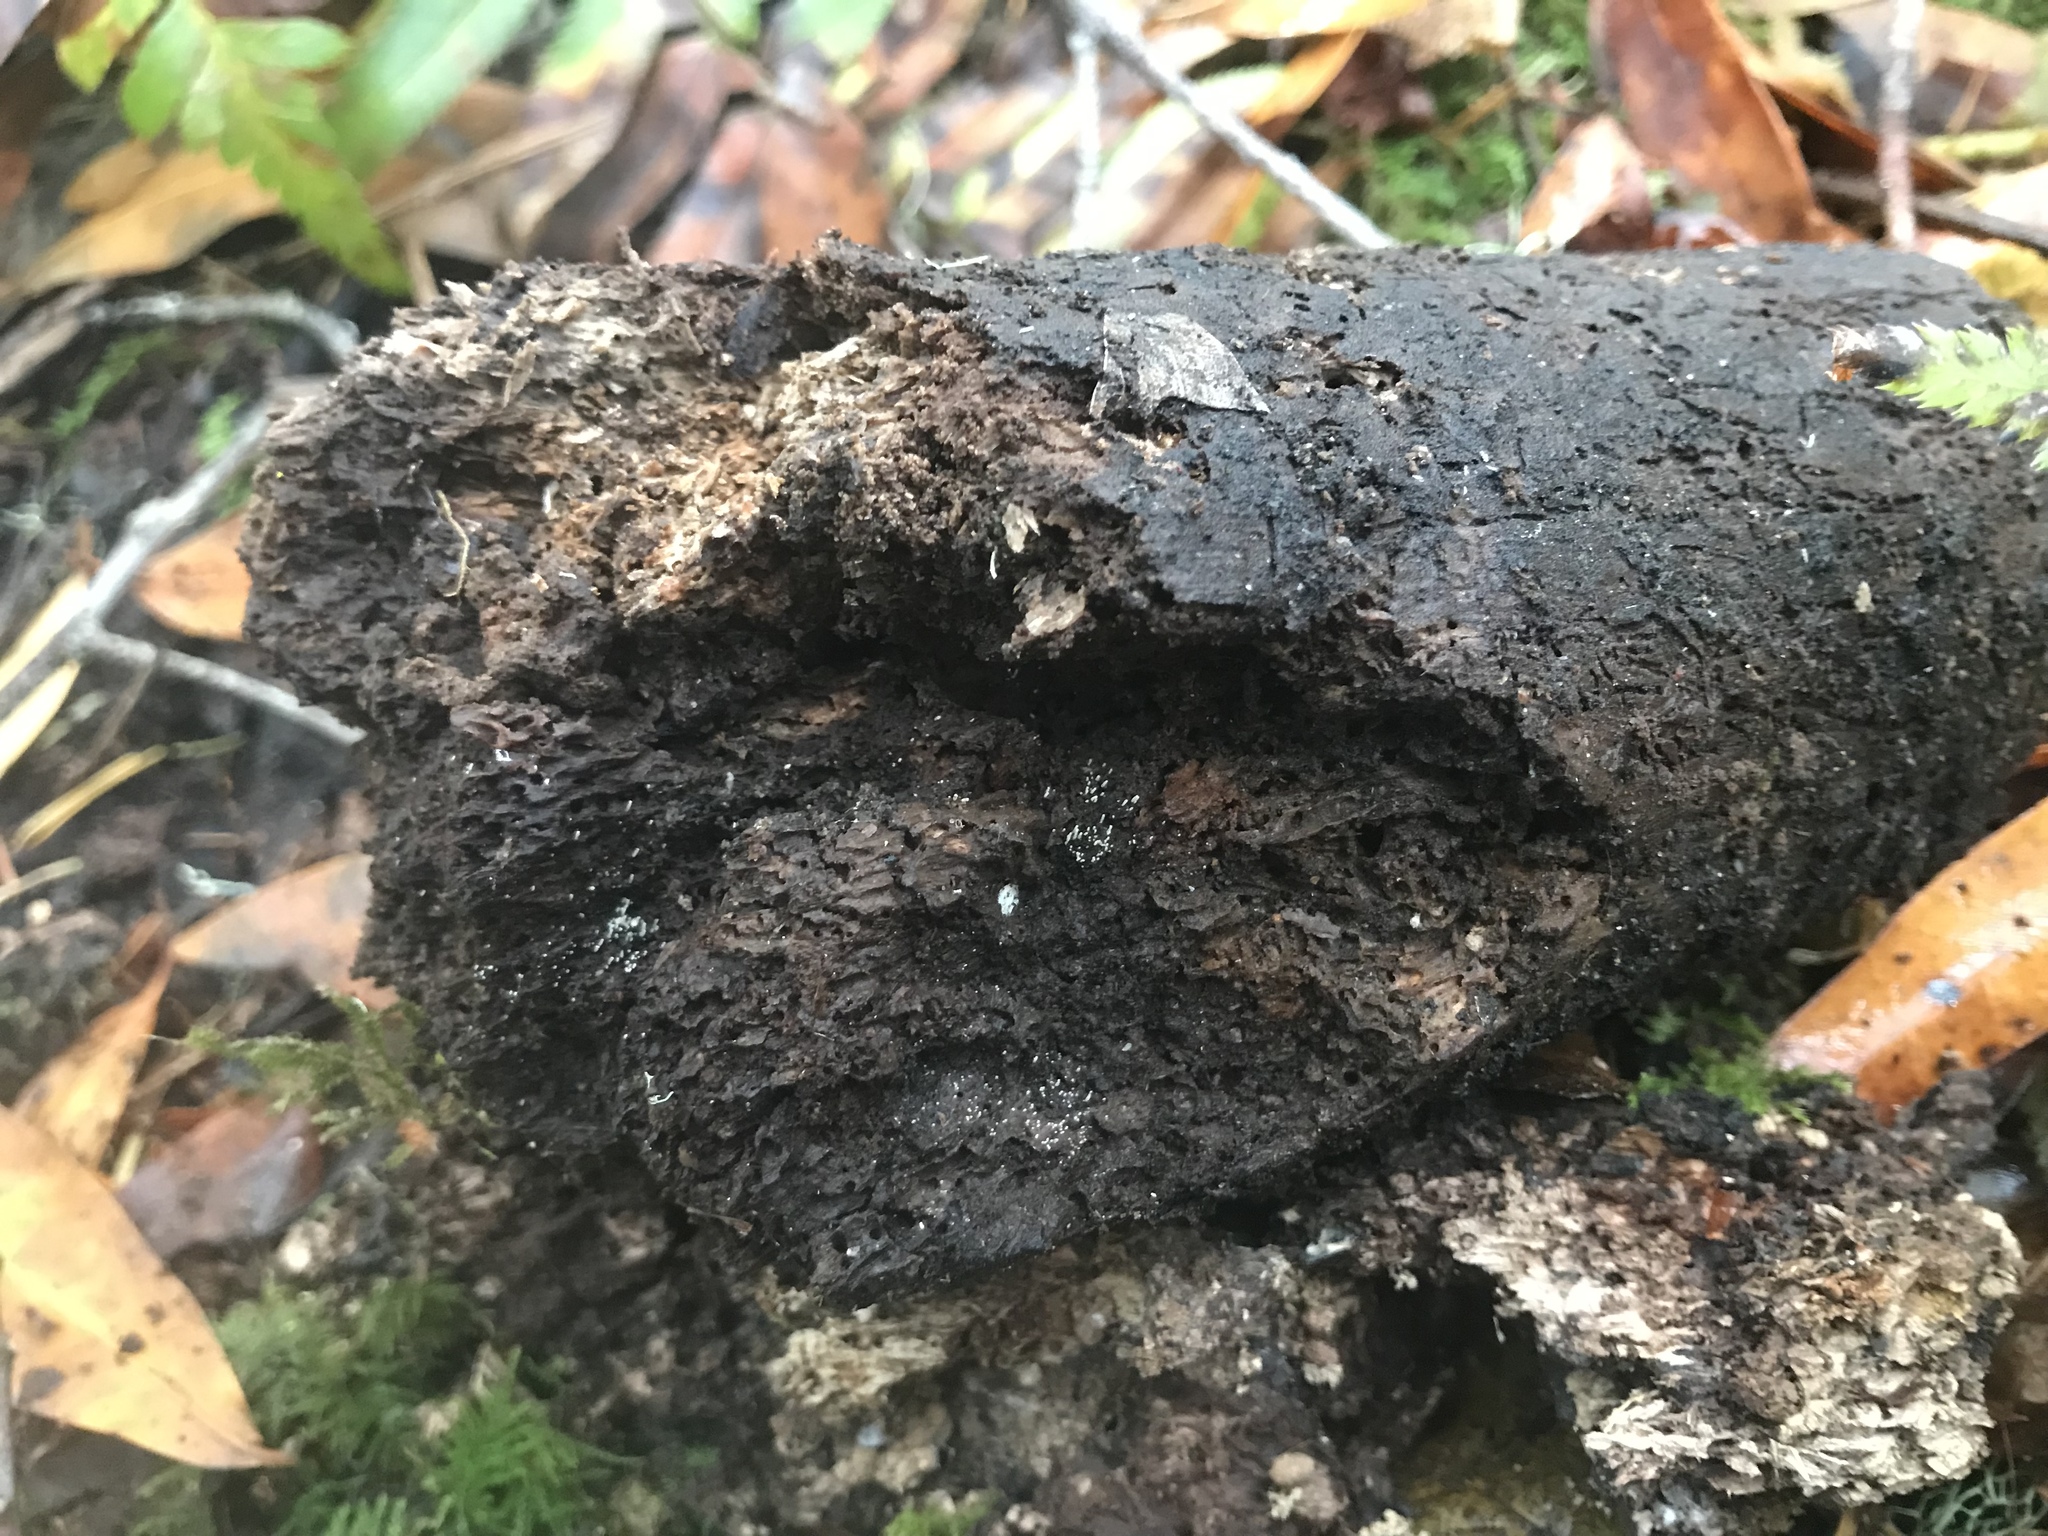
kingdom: Fungi
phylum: Basidiomycota
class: Agaricomycetes
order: Agaricales
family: Marasmiaceae
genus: Henningsomyces
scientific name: Henningsomyces candidus
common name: White tubelet
